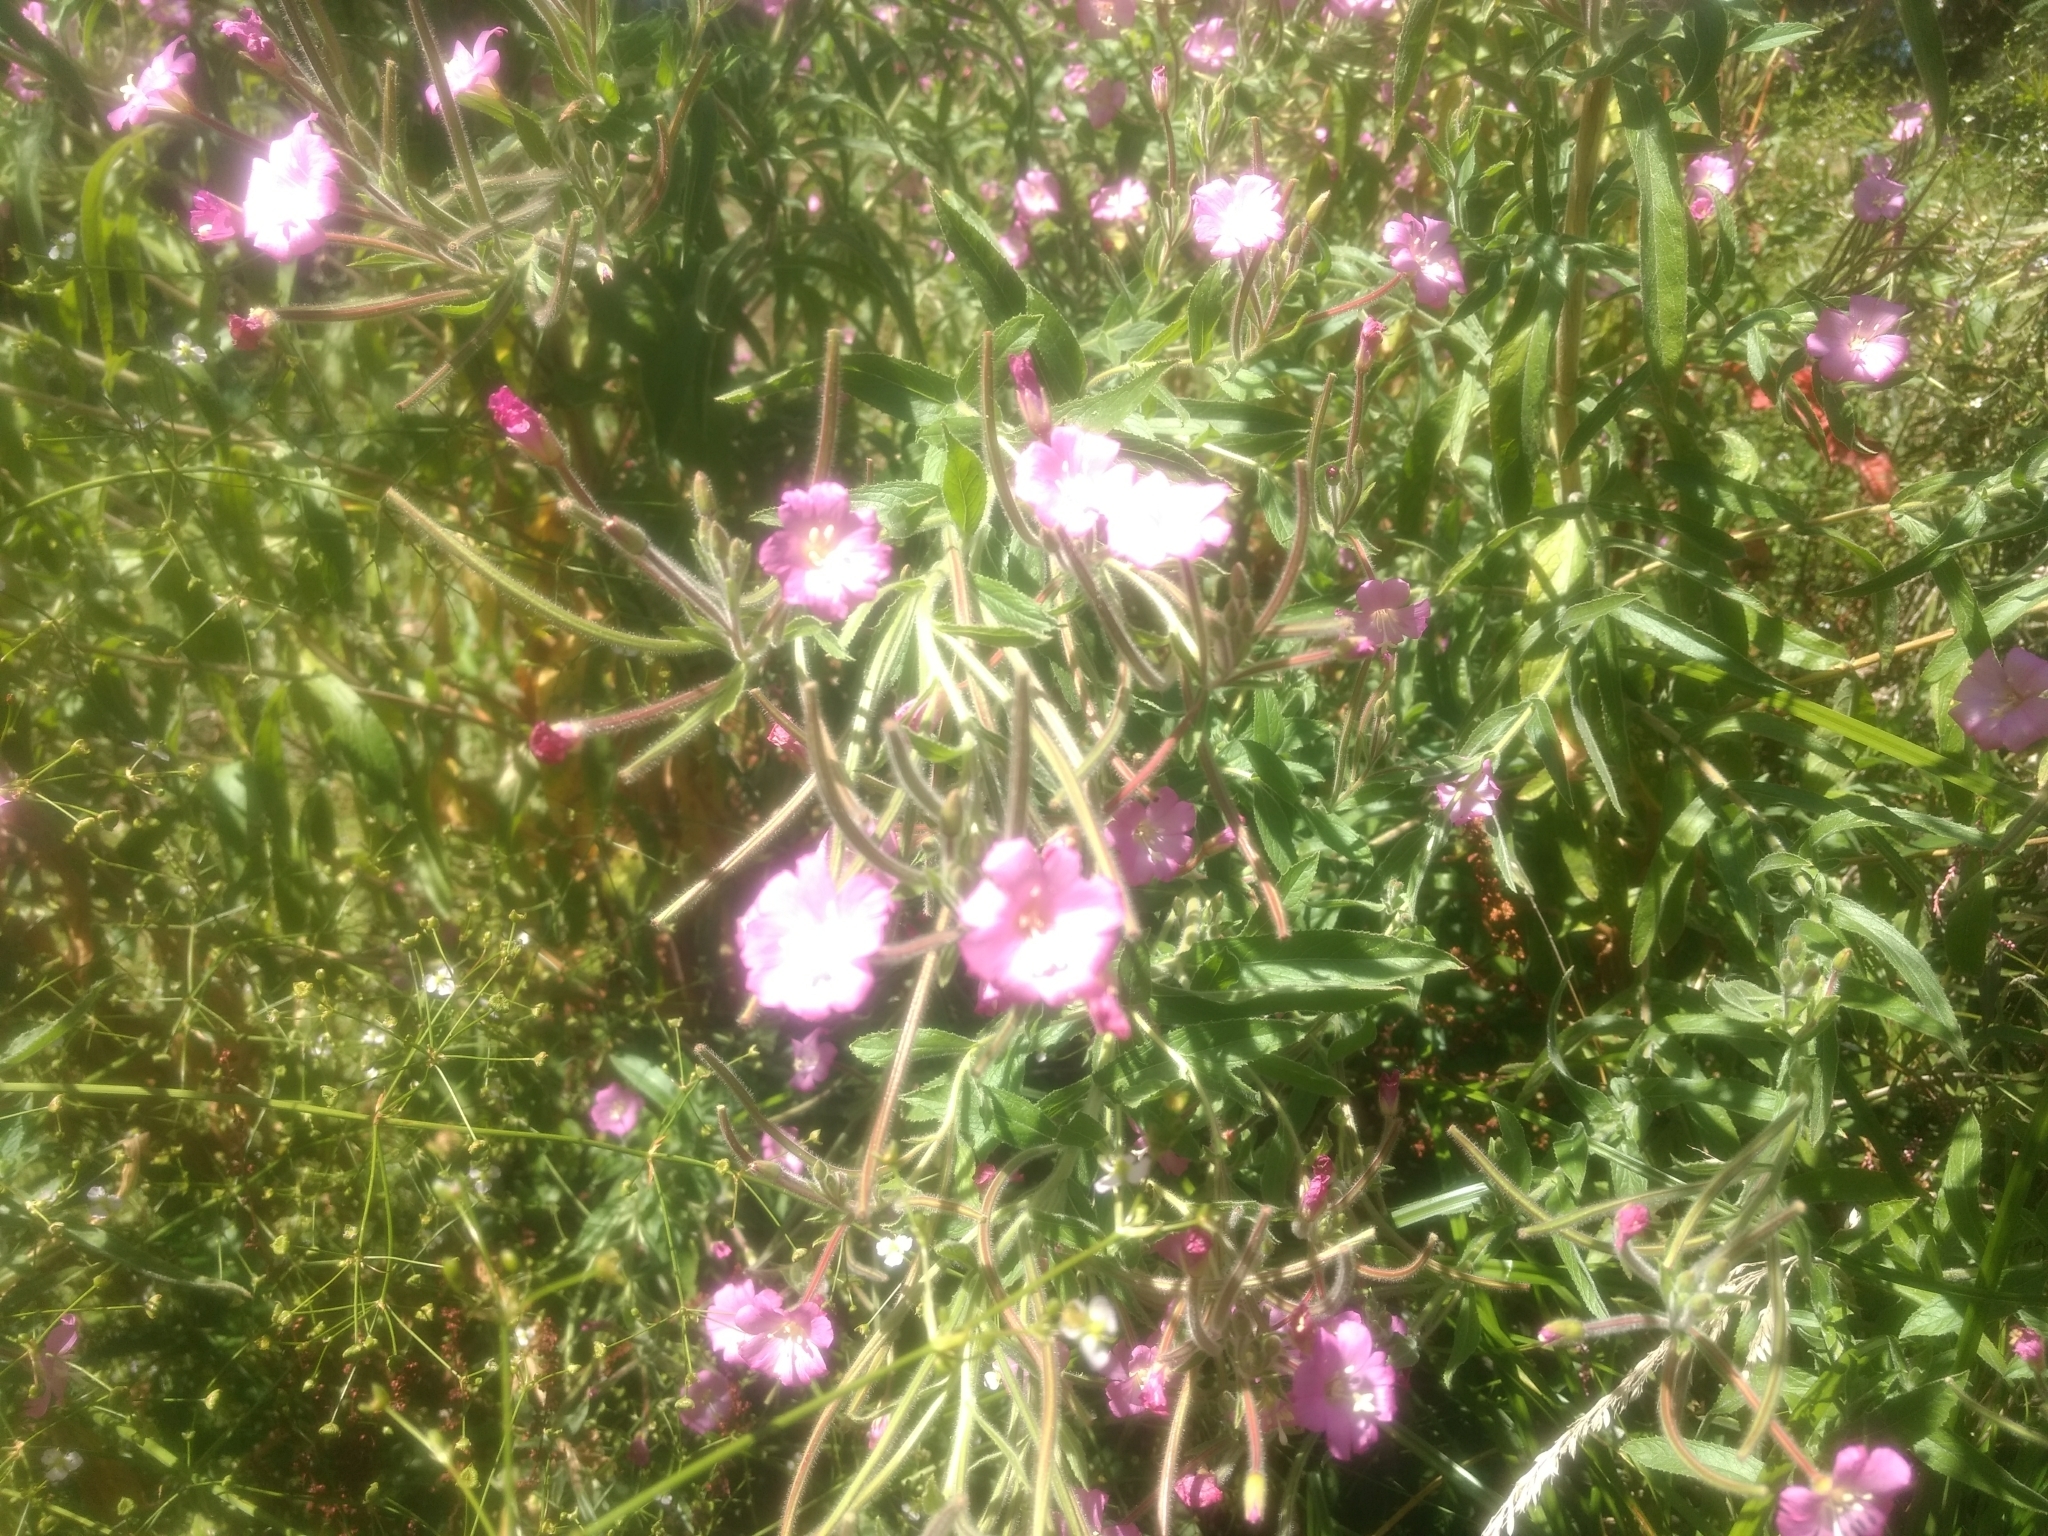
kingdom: Plantae
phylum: Tracheophyta
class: Magnoliopsida
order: Myrtales
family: Onagraceae
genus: Epilobium
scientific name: Epilobium hirsutum
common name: Great willowherb
